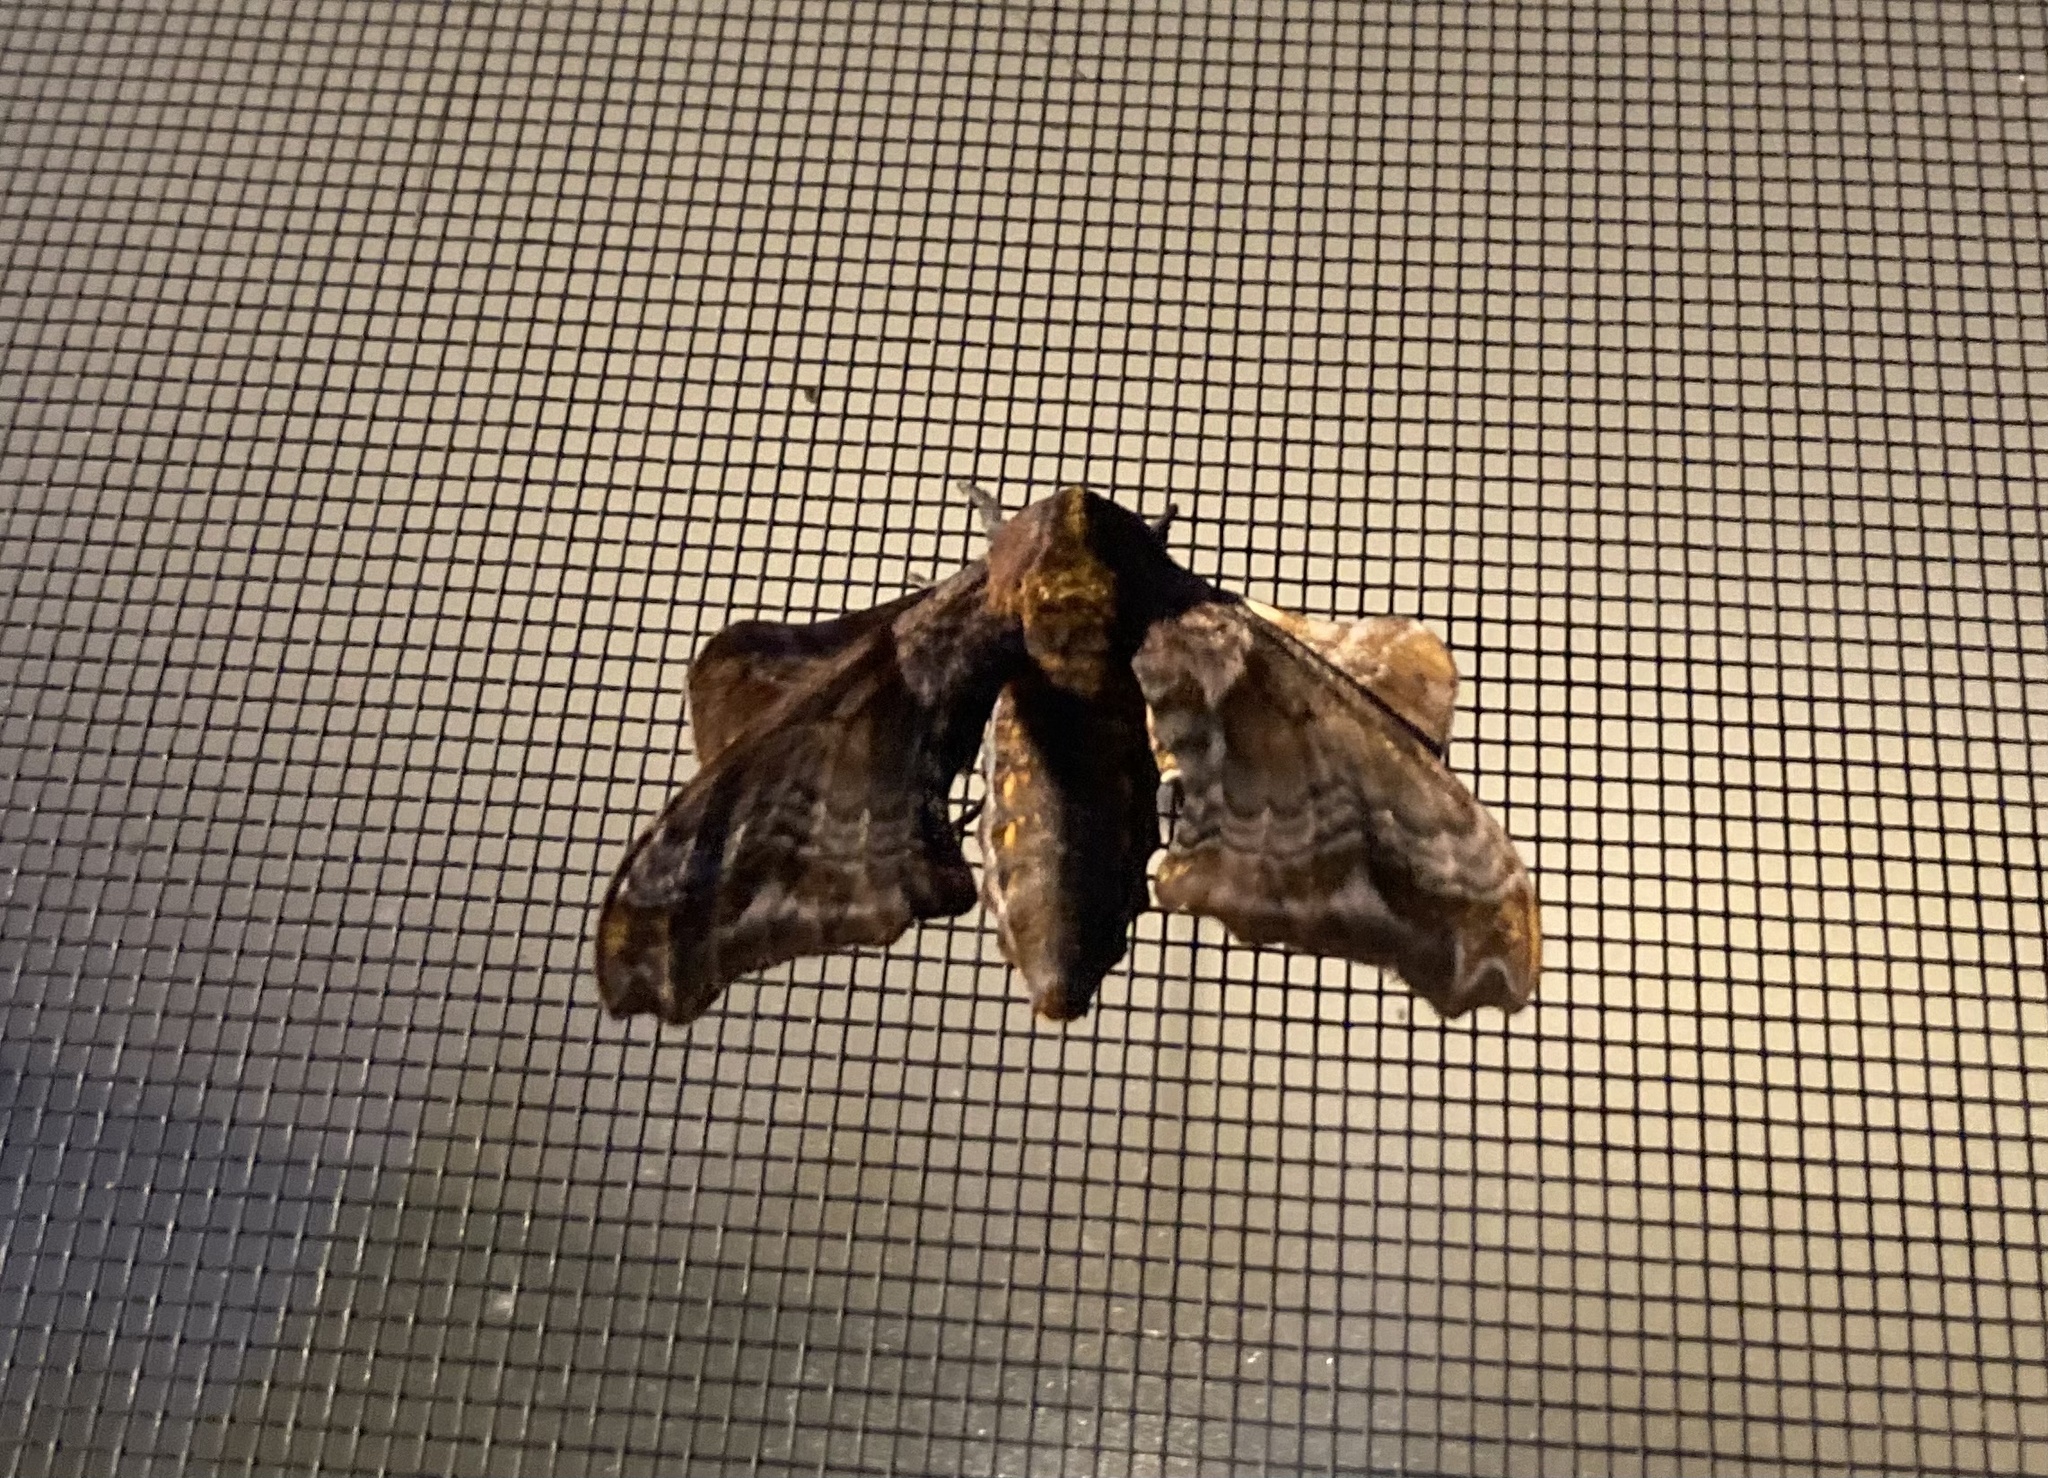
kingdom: Animalia
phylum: Arthropoda
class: Insecta
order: Lepidoptera
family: Sphingidae
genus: Paonias
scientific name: Paonias myops
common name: Small-eyed sphinx
